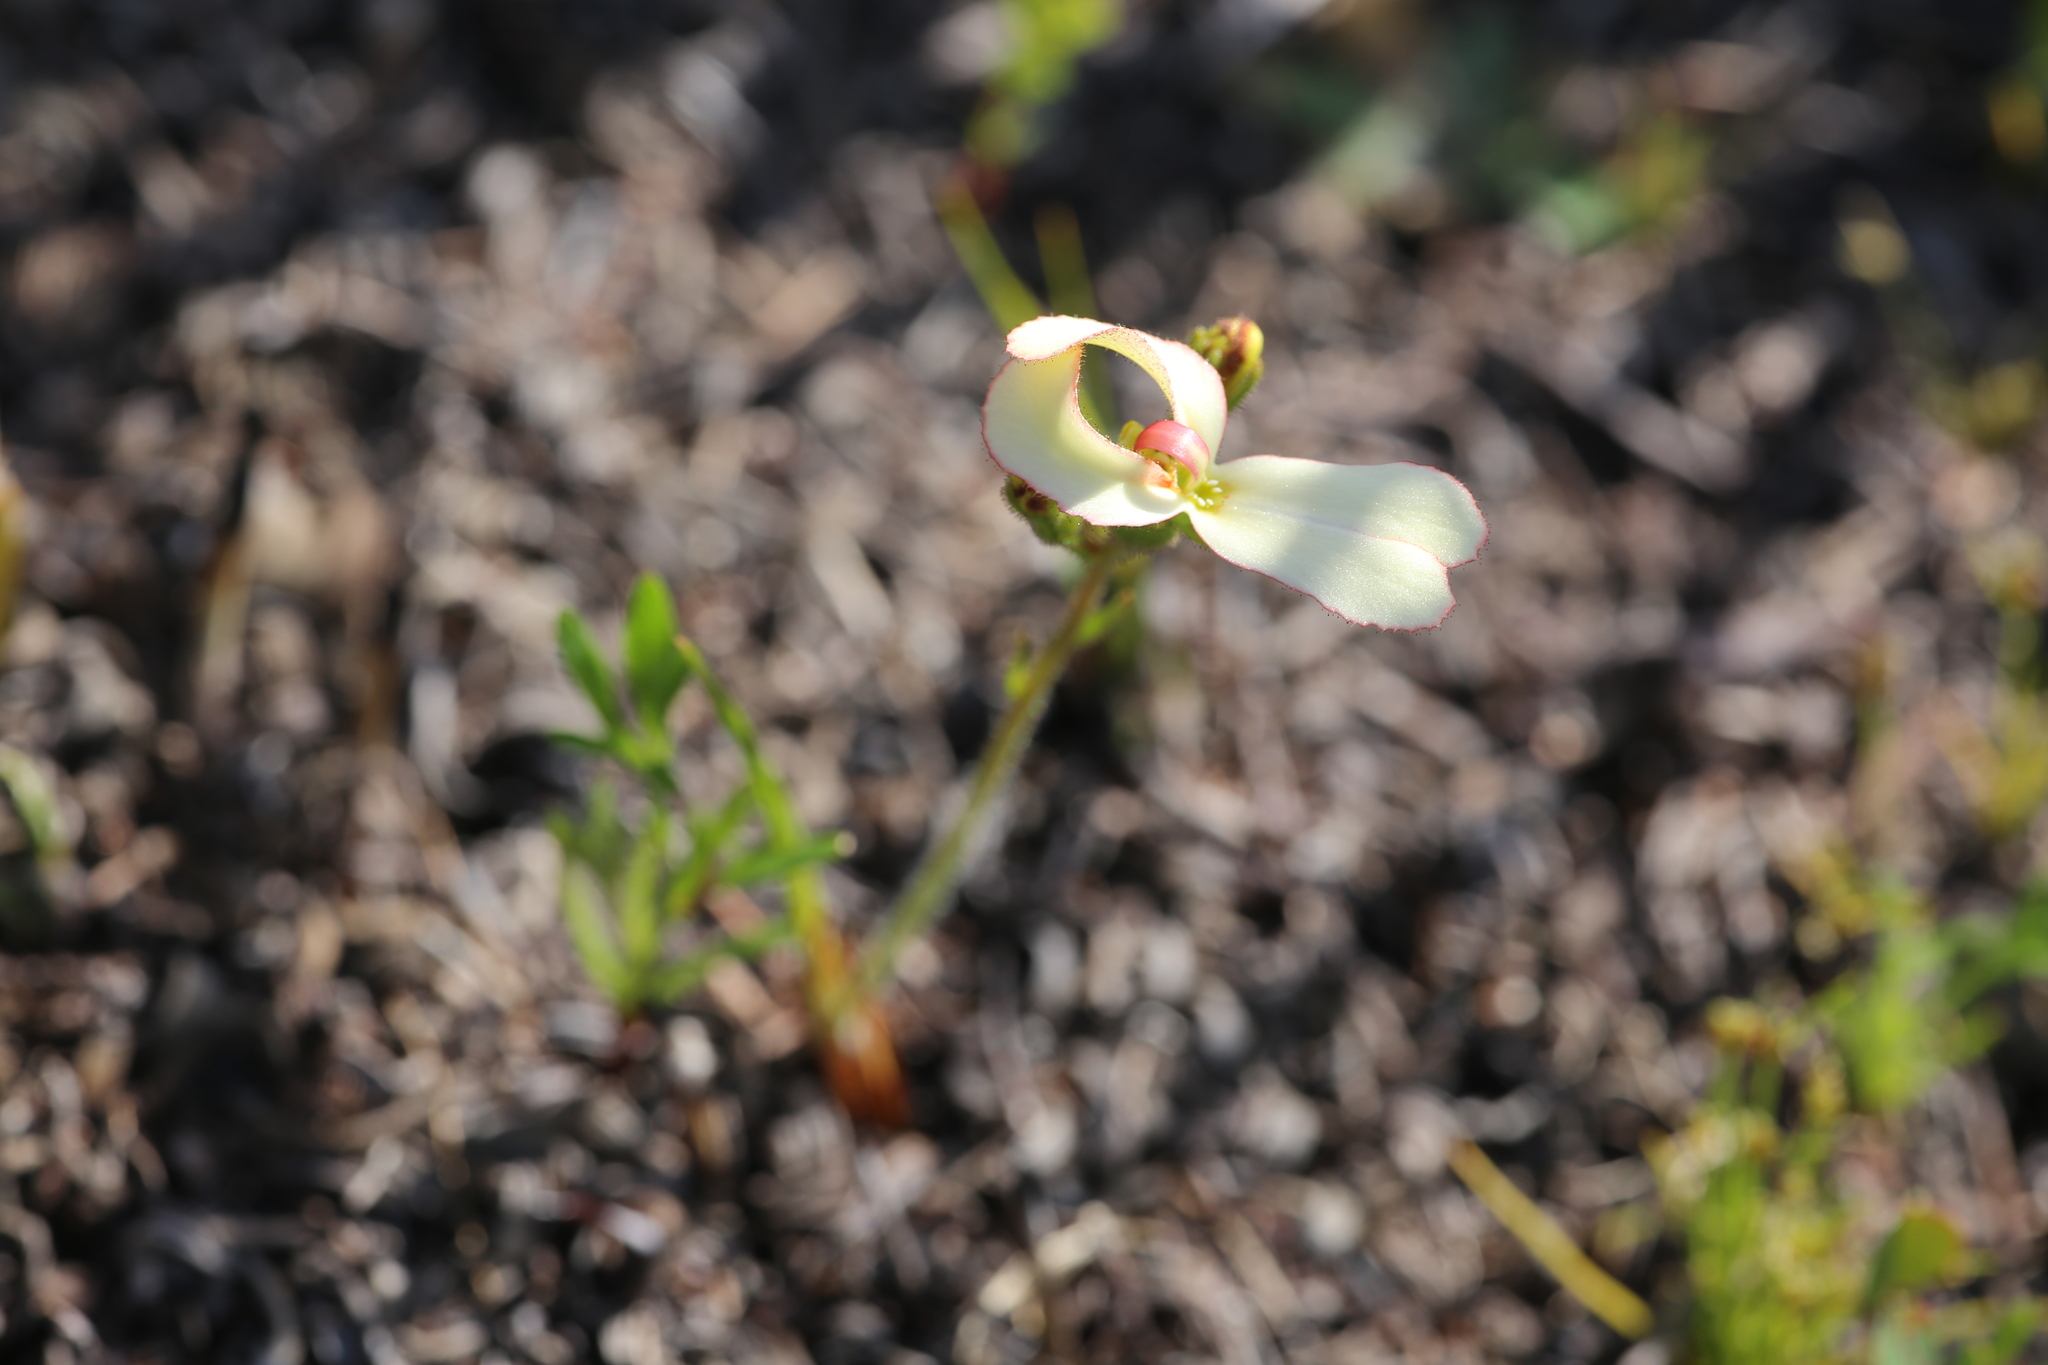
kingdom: Plantae
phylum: Tracheophyta
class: Magnoliopsida
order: Asterales
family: Stylidiaceae
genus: Stylidium
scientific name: Stylidium schoenoides
